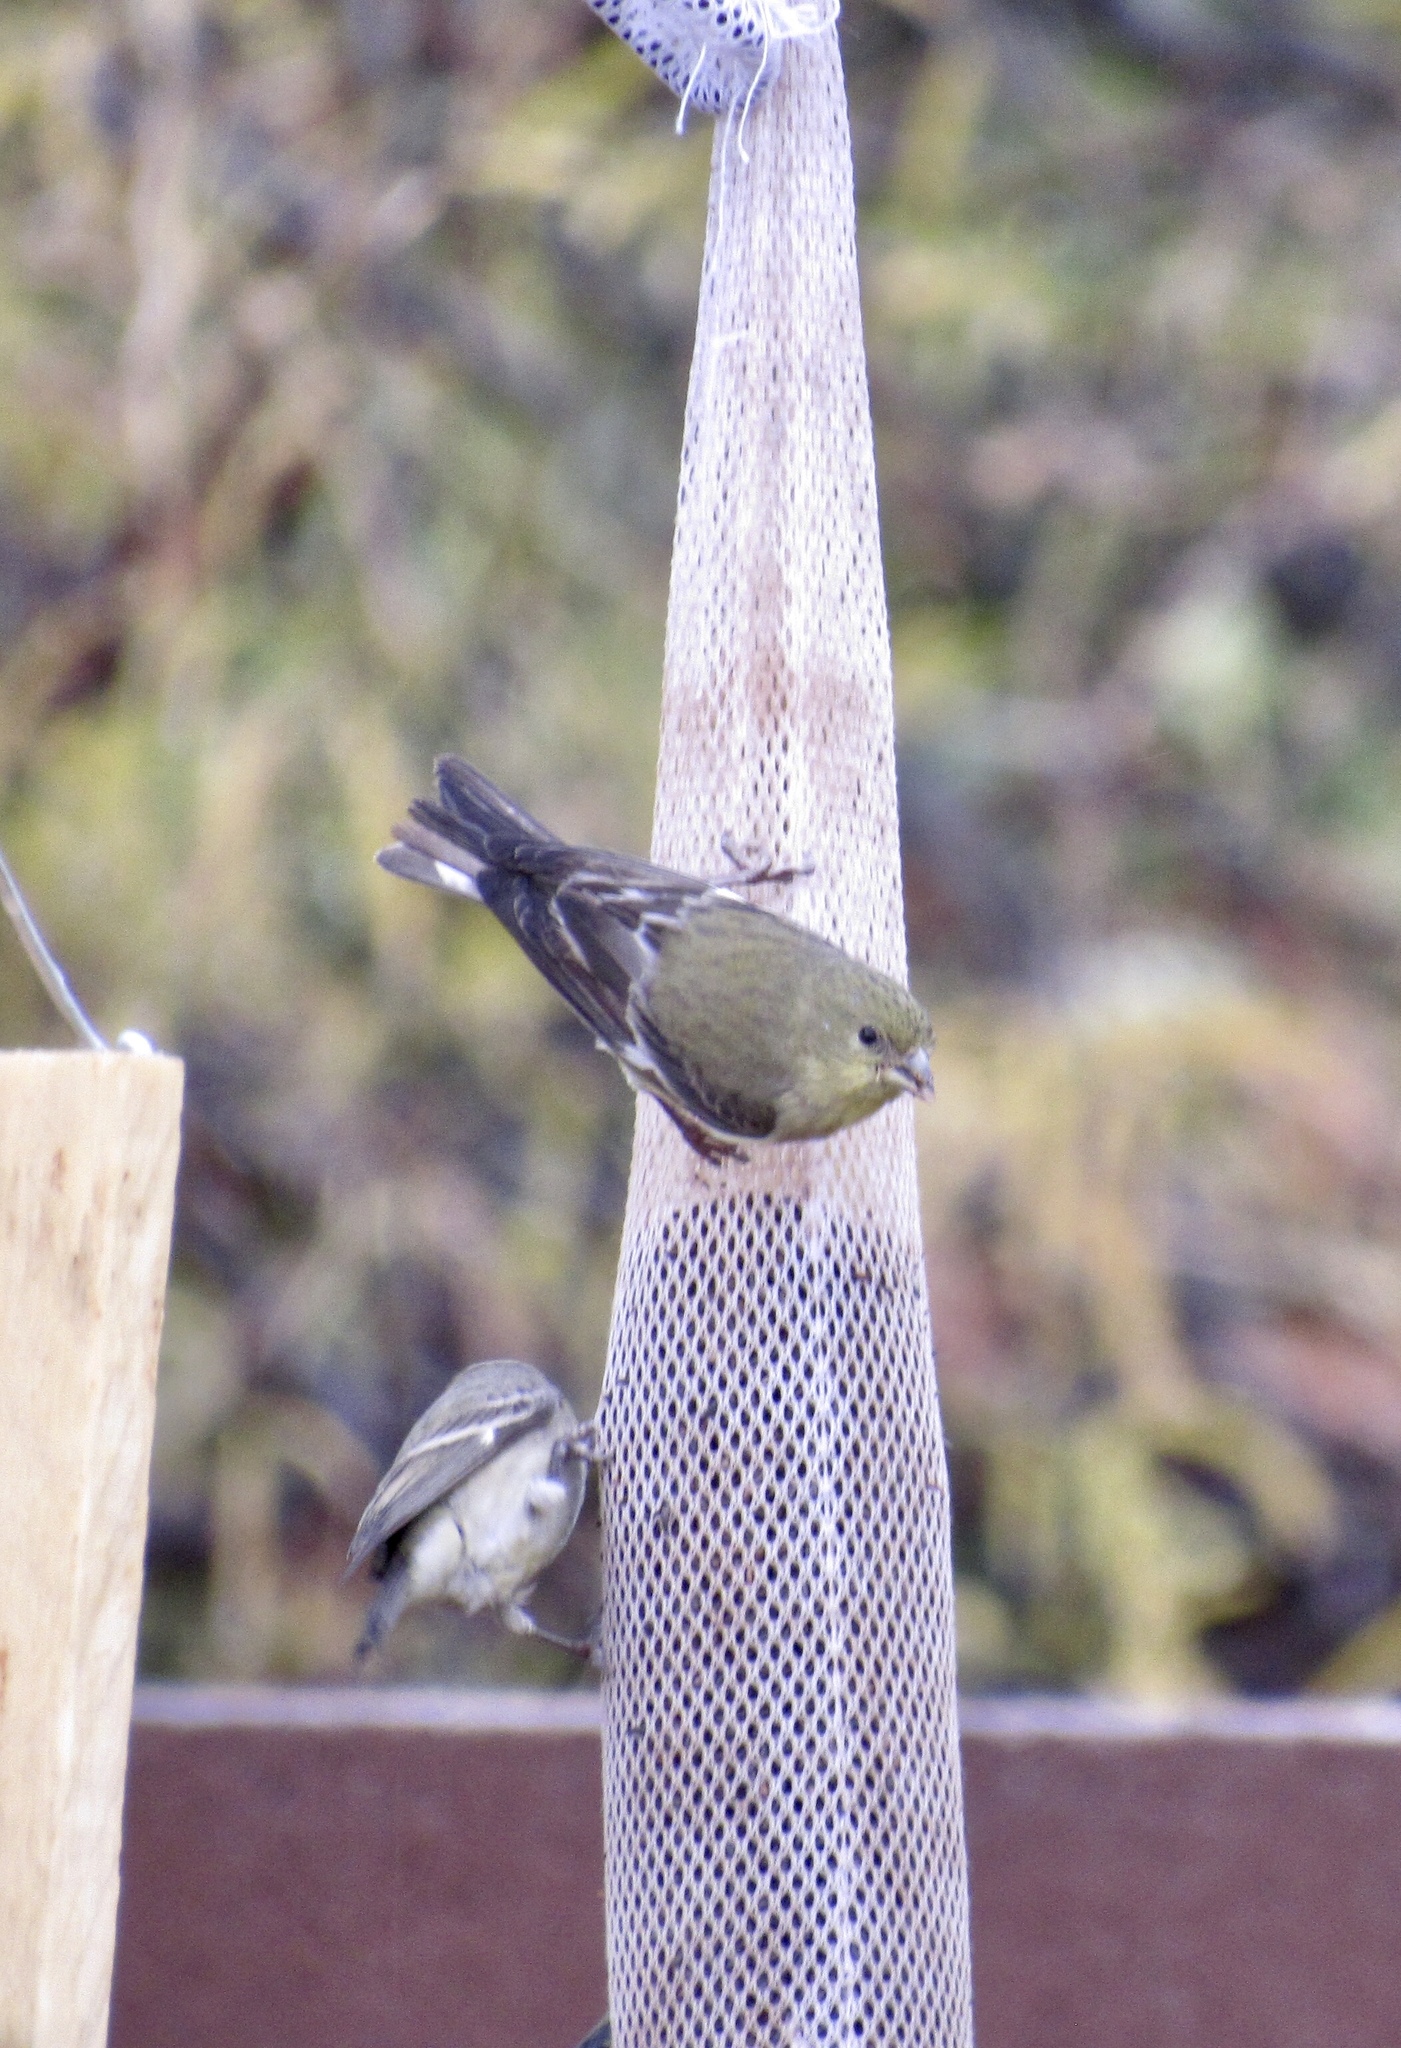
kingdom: Animalia
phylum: Chordata
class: Aves
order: Passeriformes
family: Fringillidae
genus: Spinus
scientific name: Spinus psaltria
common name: Lesser goldfinch
